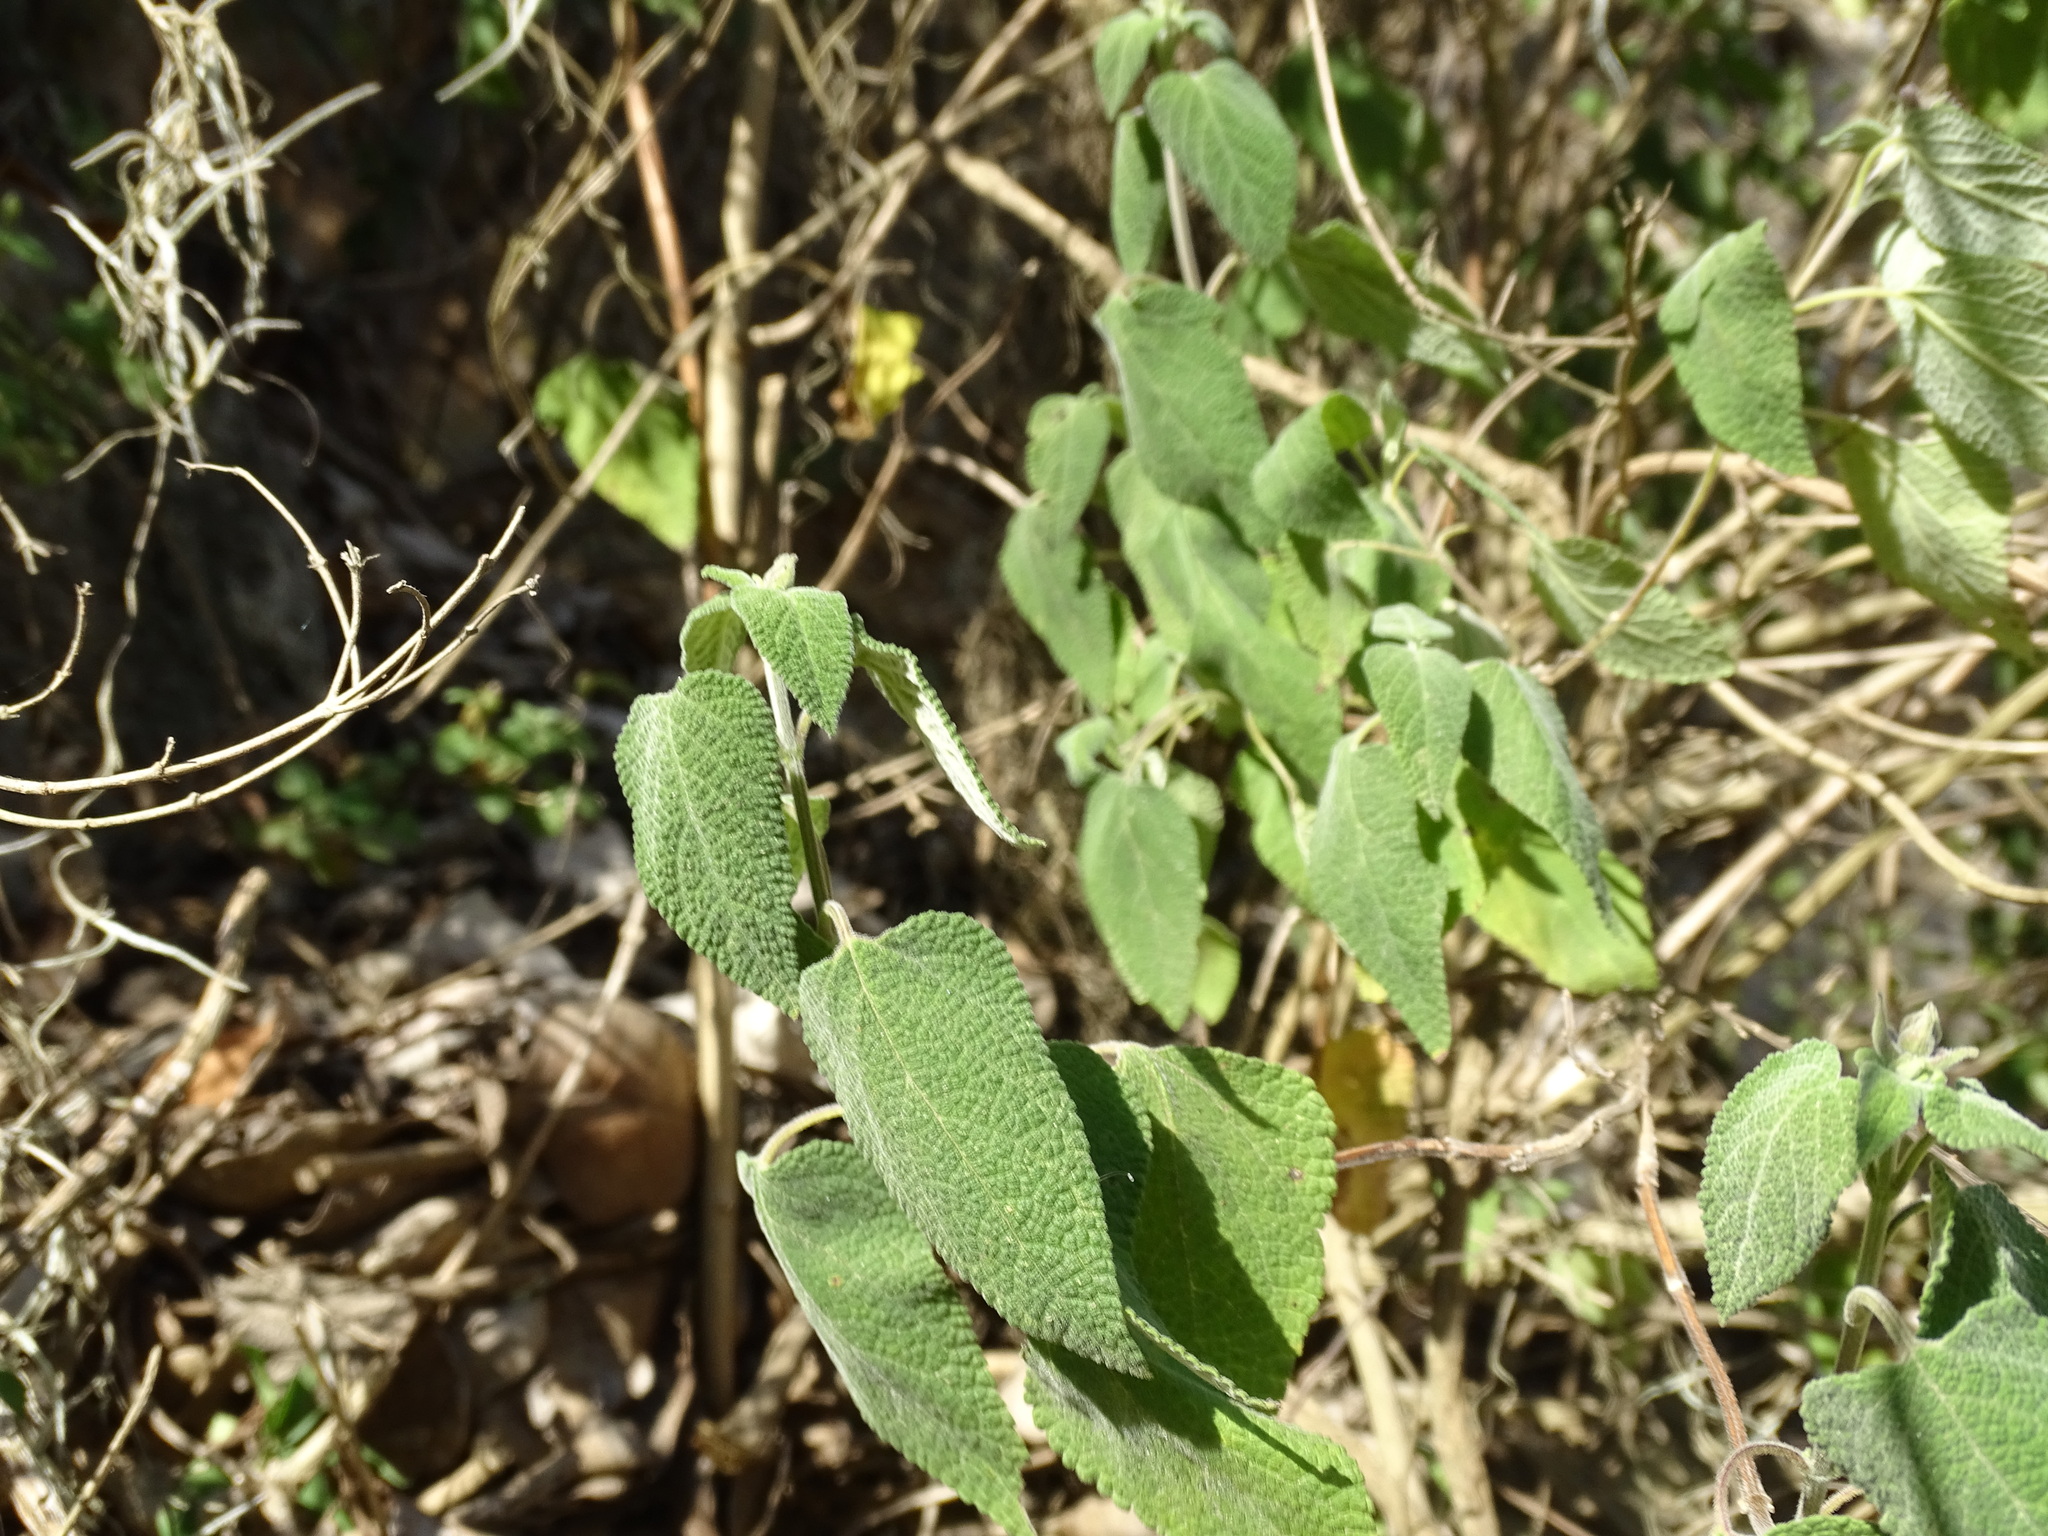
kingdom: Plantae
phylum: Tracheophyta
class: Magnoliopsida
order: Lamiales
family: Lamiaceae
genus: Salvia
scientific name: Salvia polystachia
